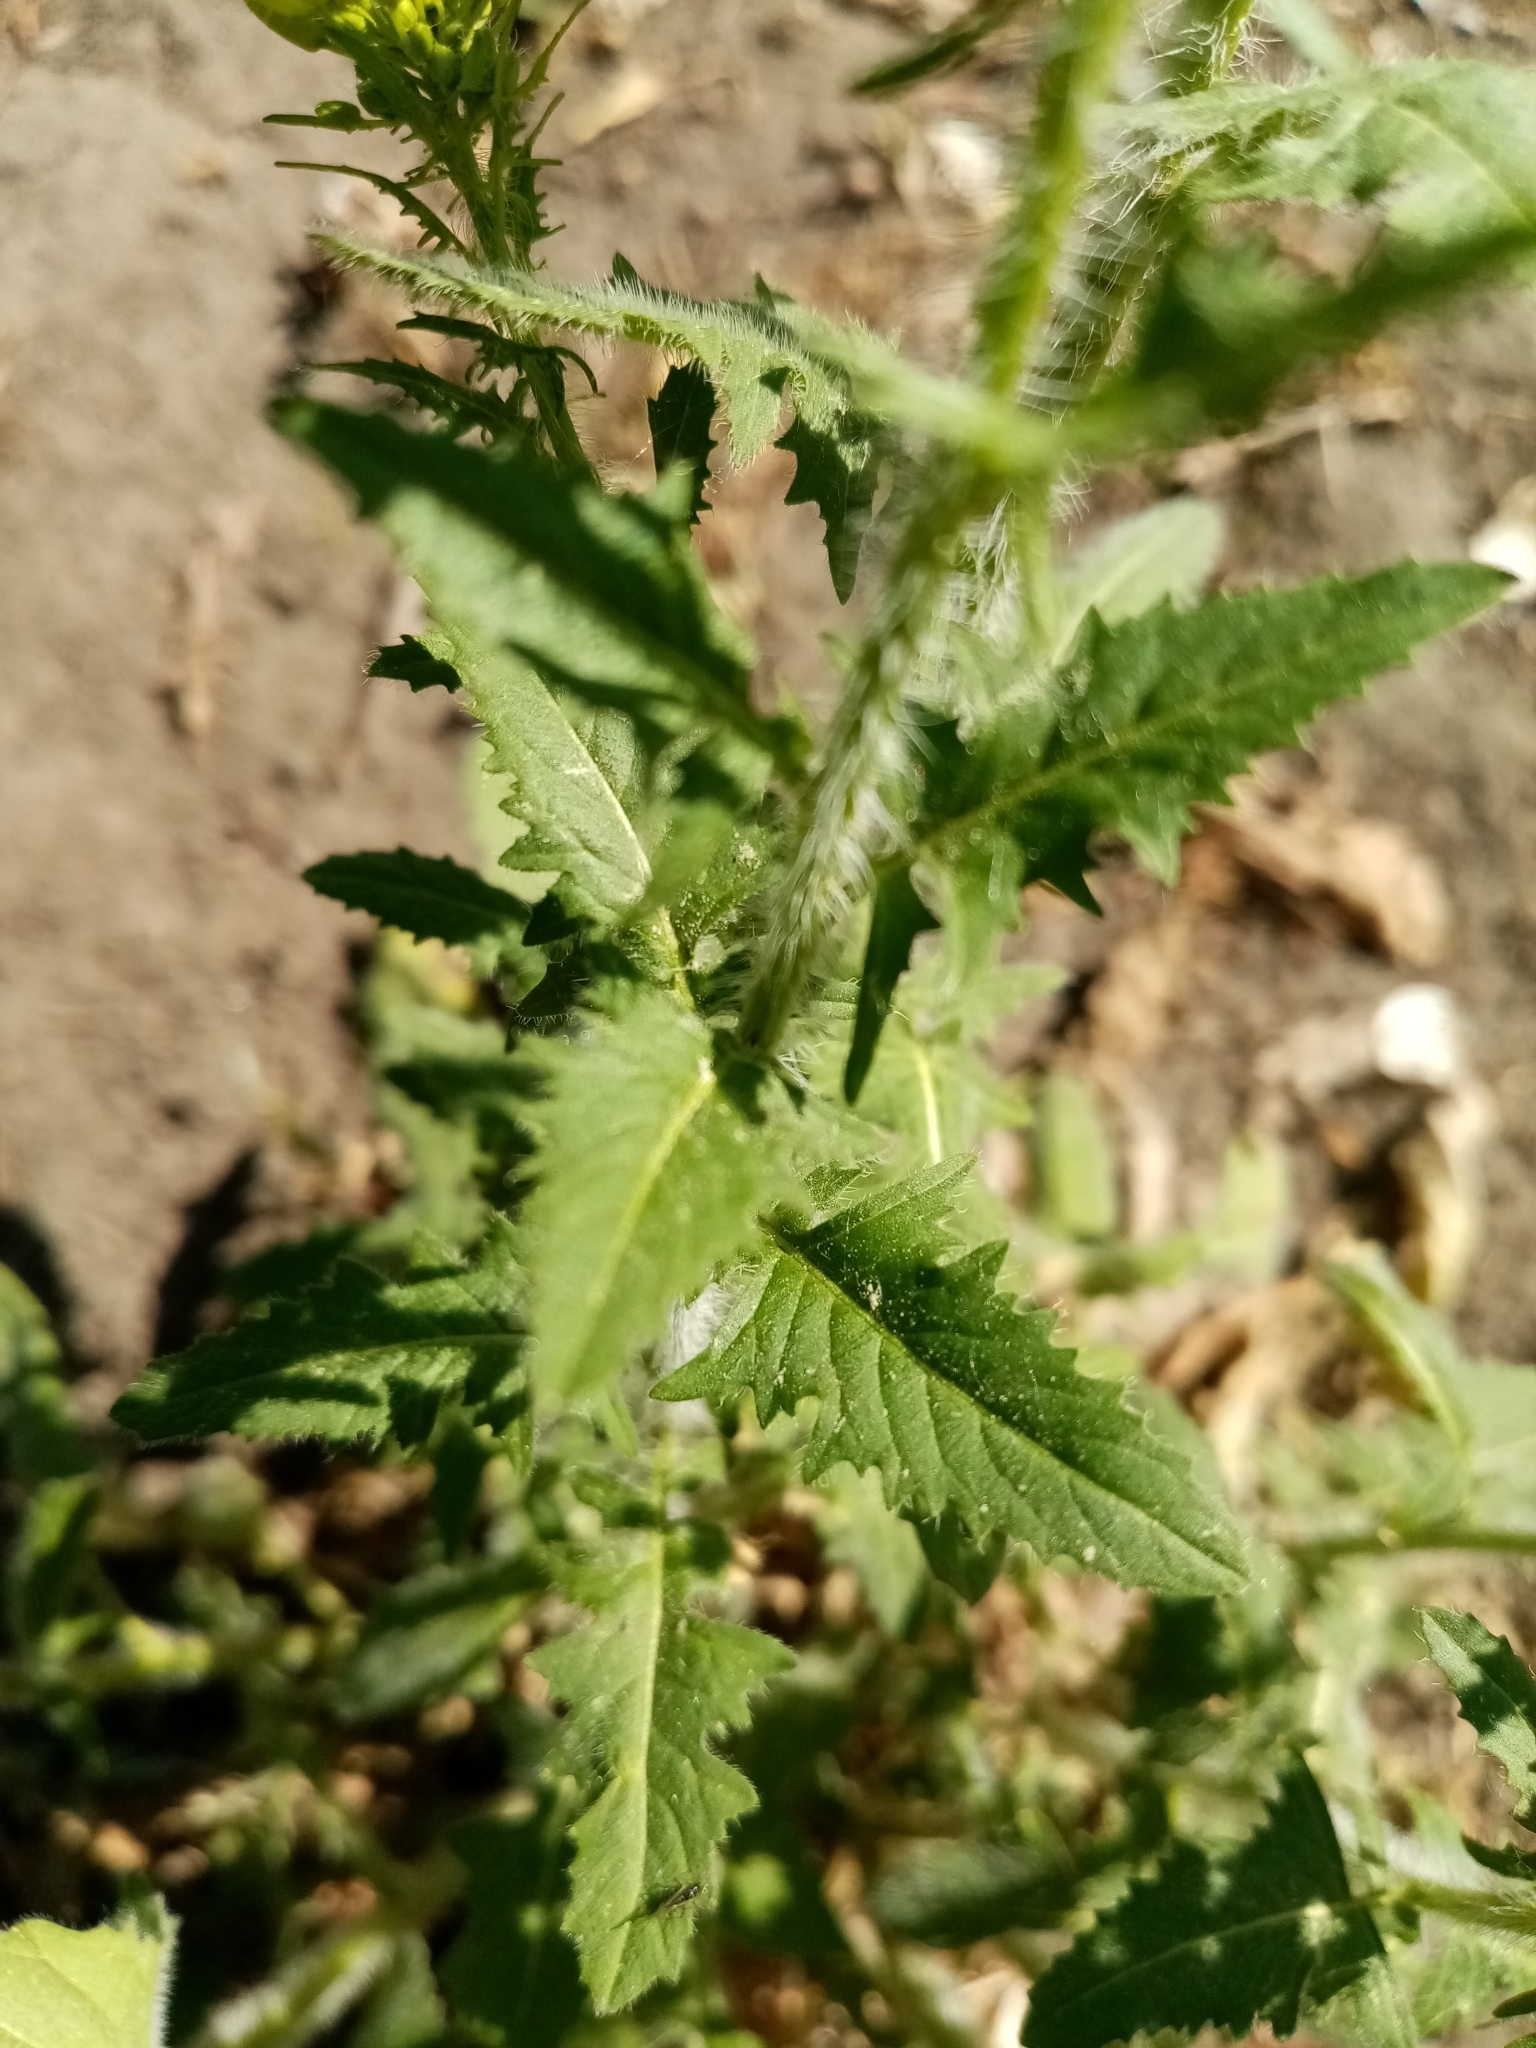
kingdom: Plantae
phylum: Tracheophyta
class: Magnoliopsida
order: Brassicales
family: Brassicaceae
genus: Sisymbrium
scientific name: Sisymbrium loeselii
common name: False london-rocket
